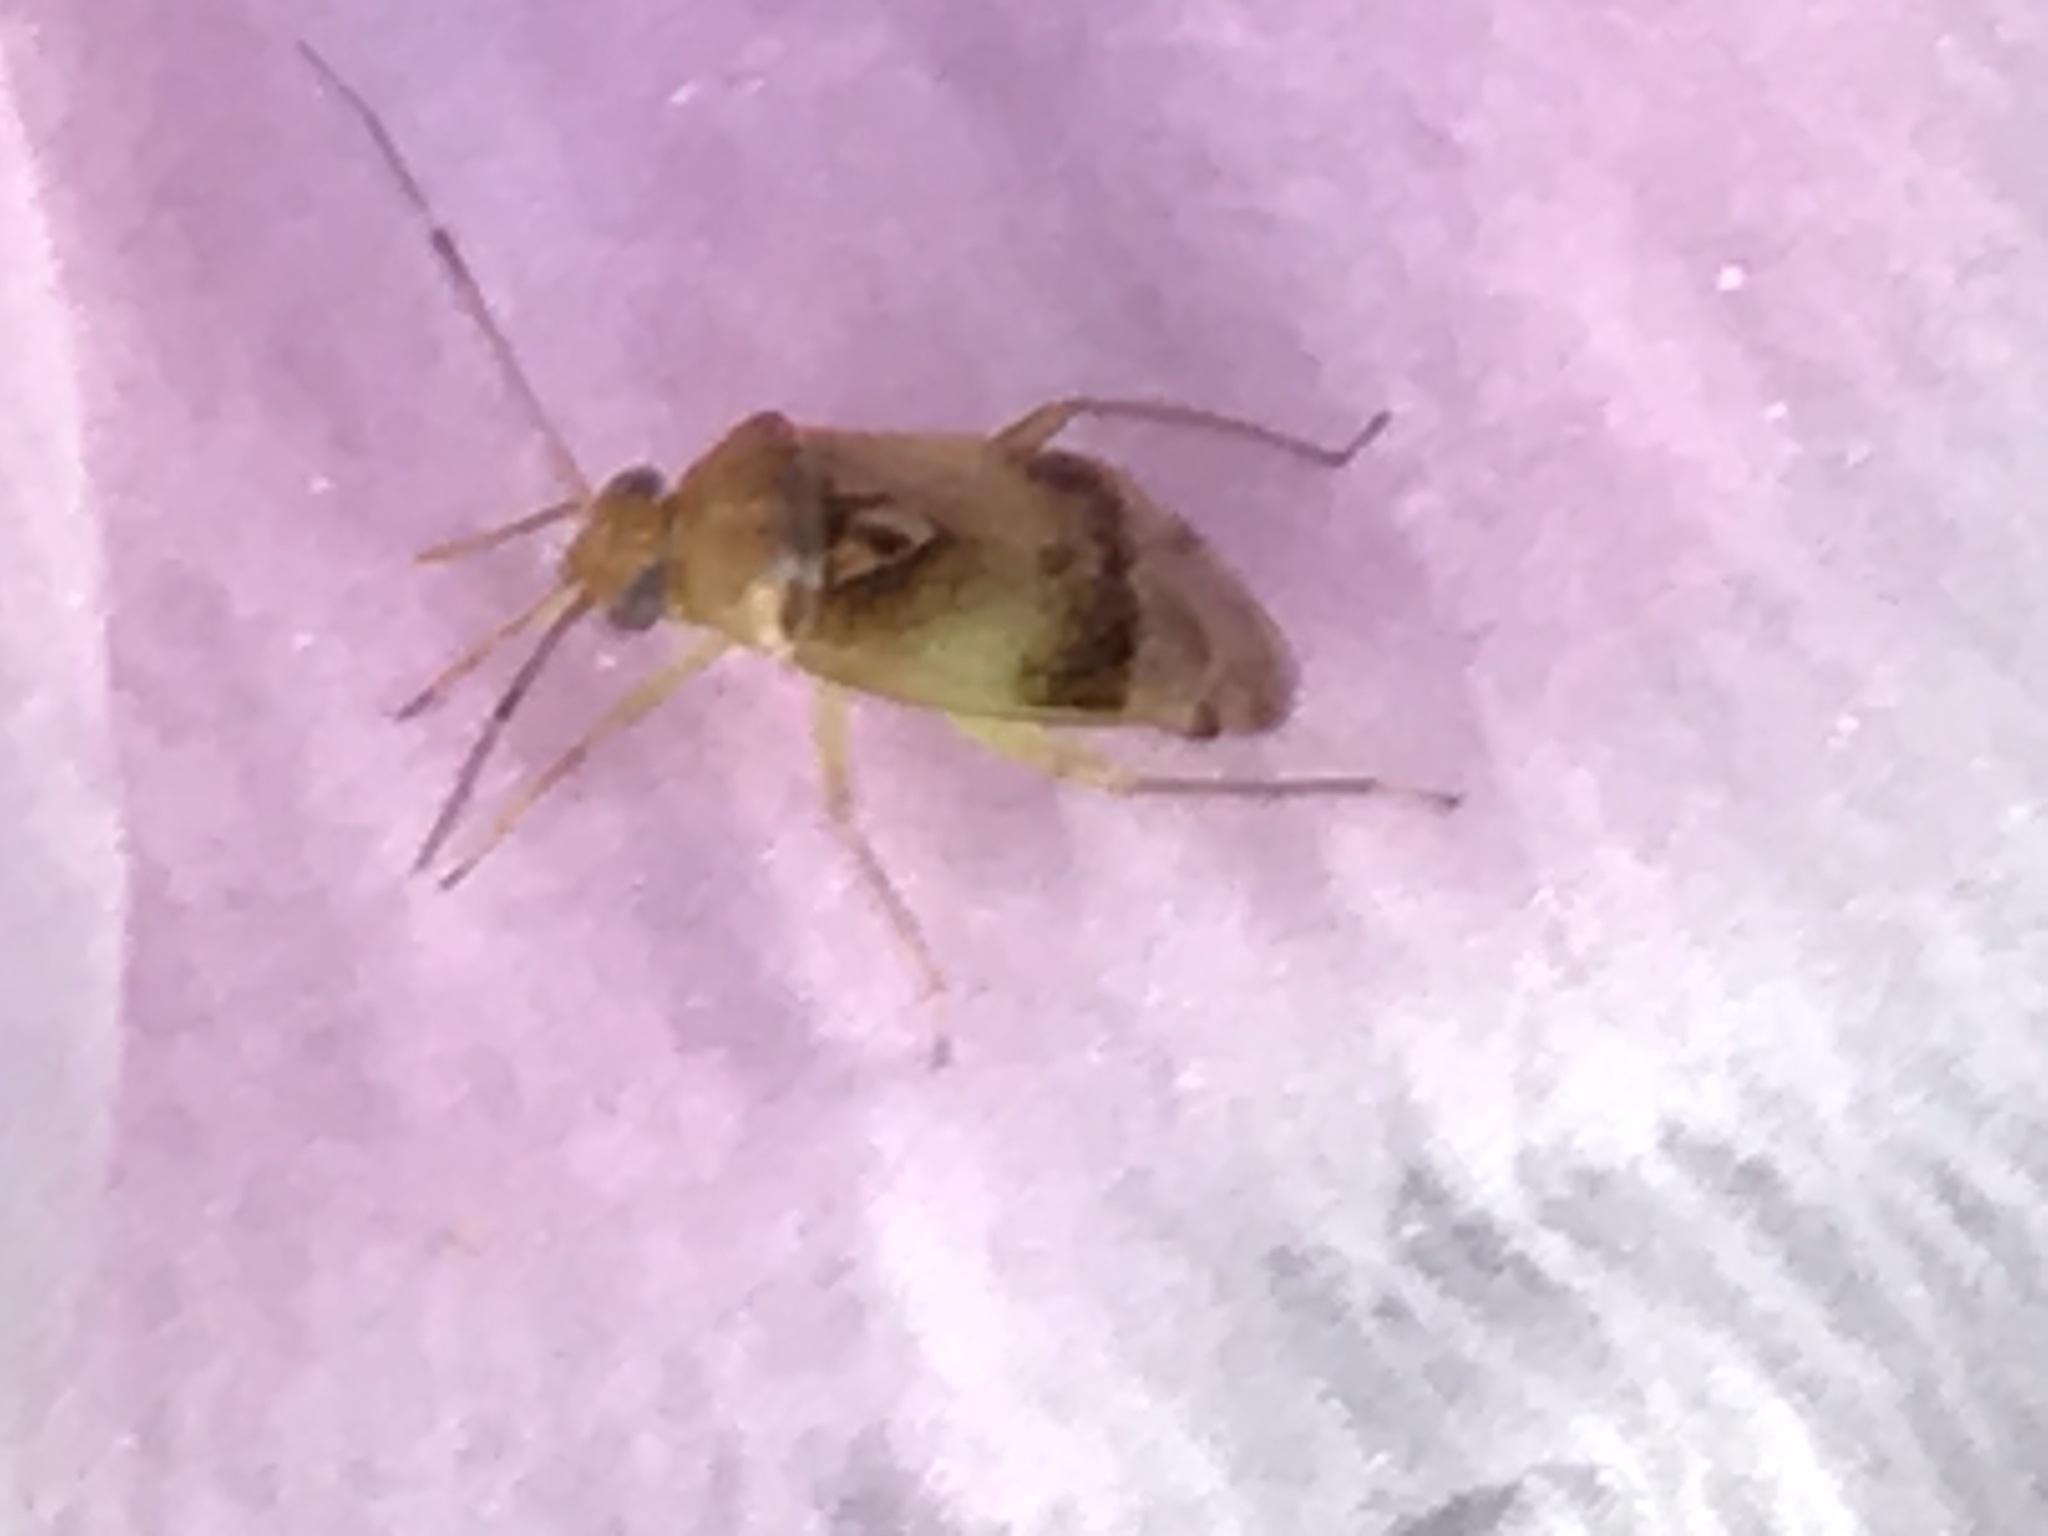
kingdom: Animalia
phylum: Arthropoda
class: Insecta
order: Hemiptera
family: Miridae
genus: Pinalitus
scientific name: Pinalitus cervinus
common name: Plant bug
